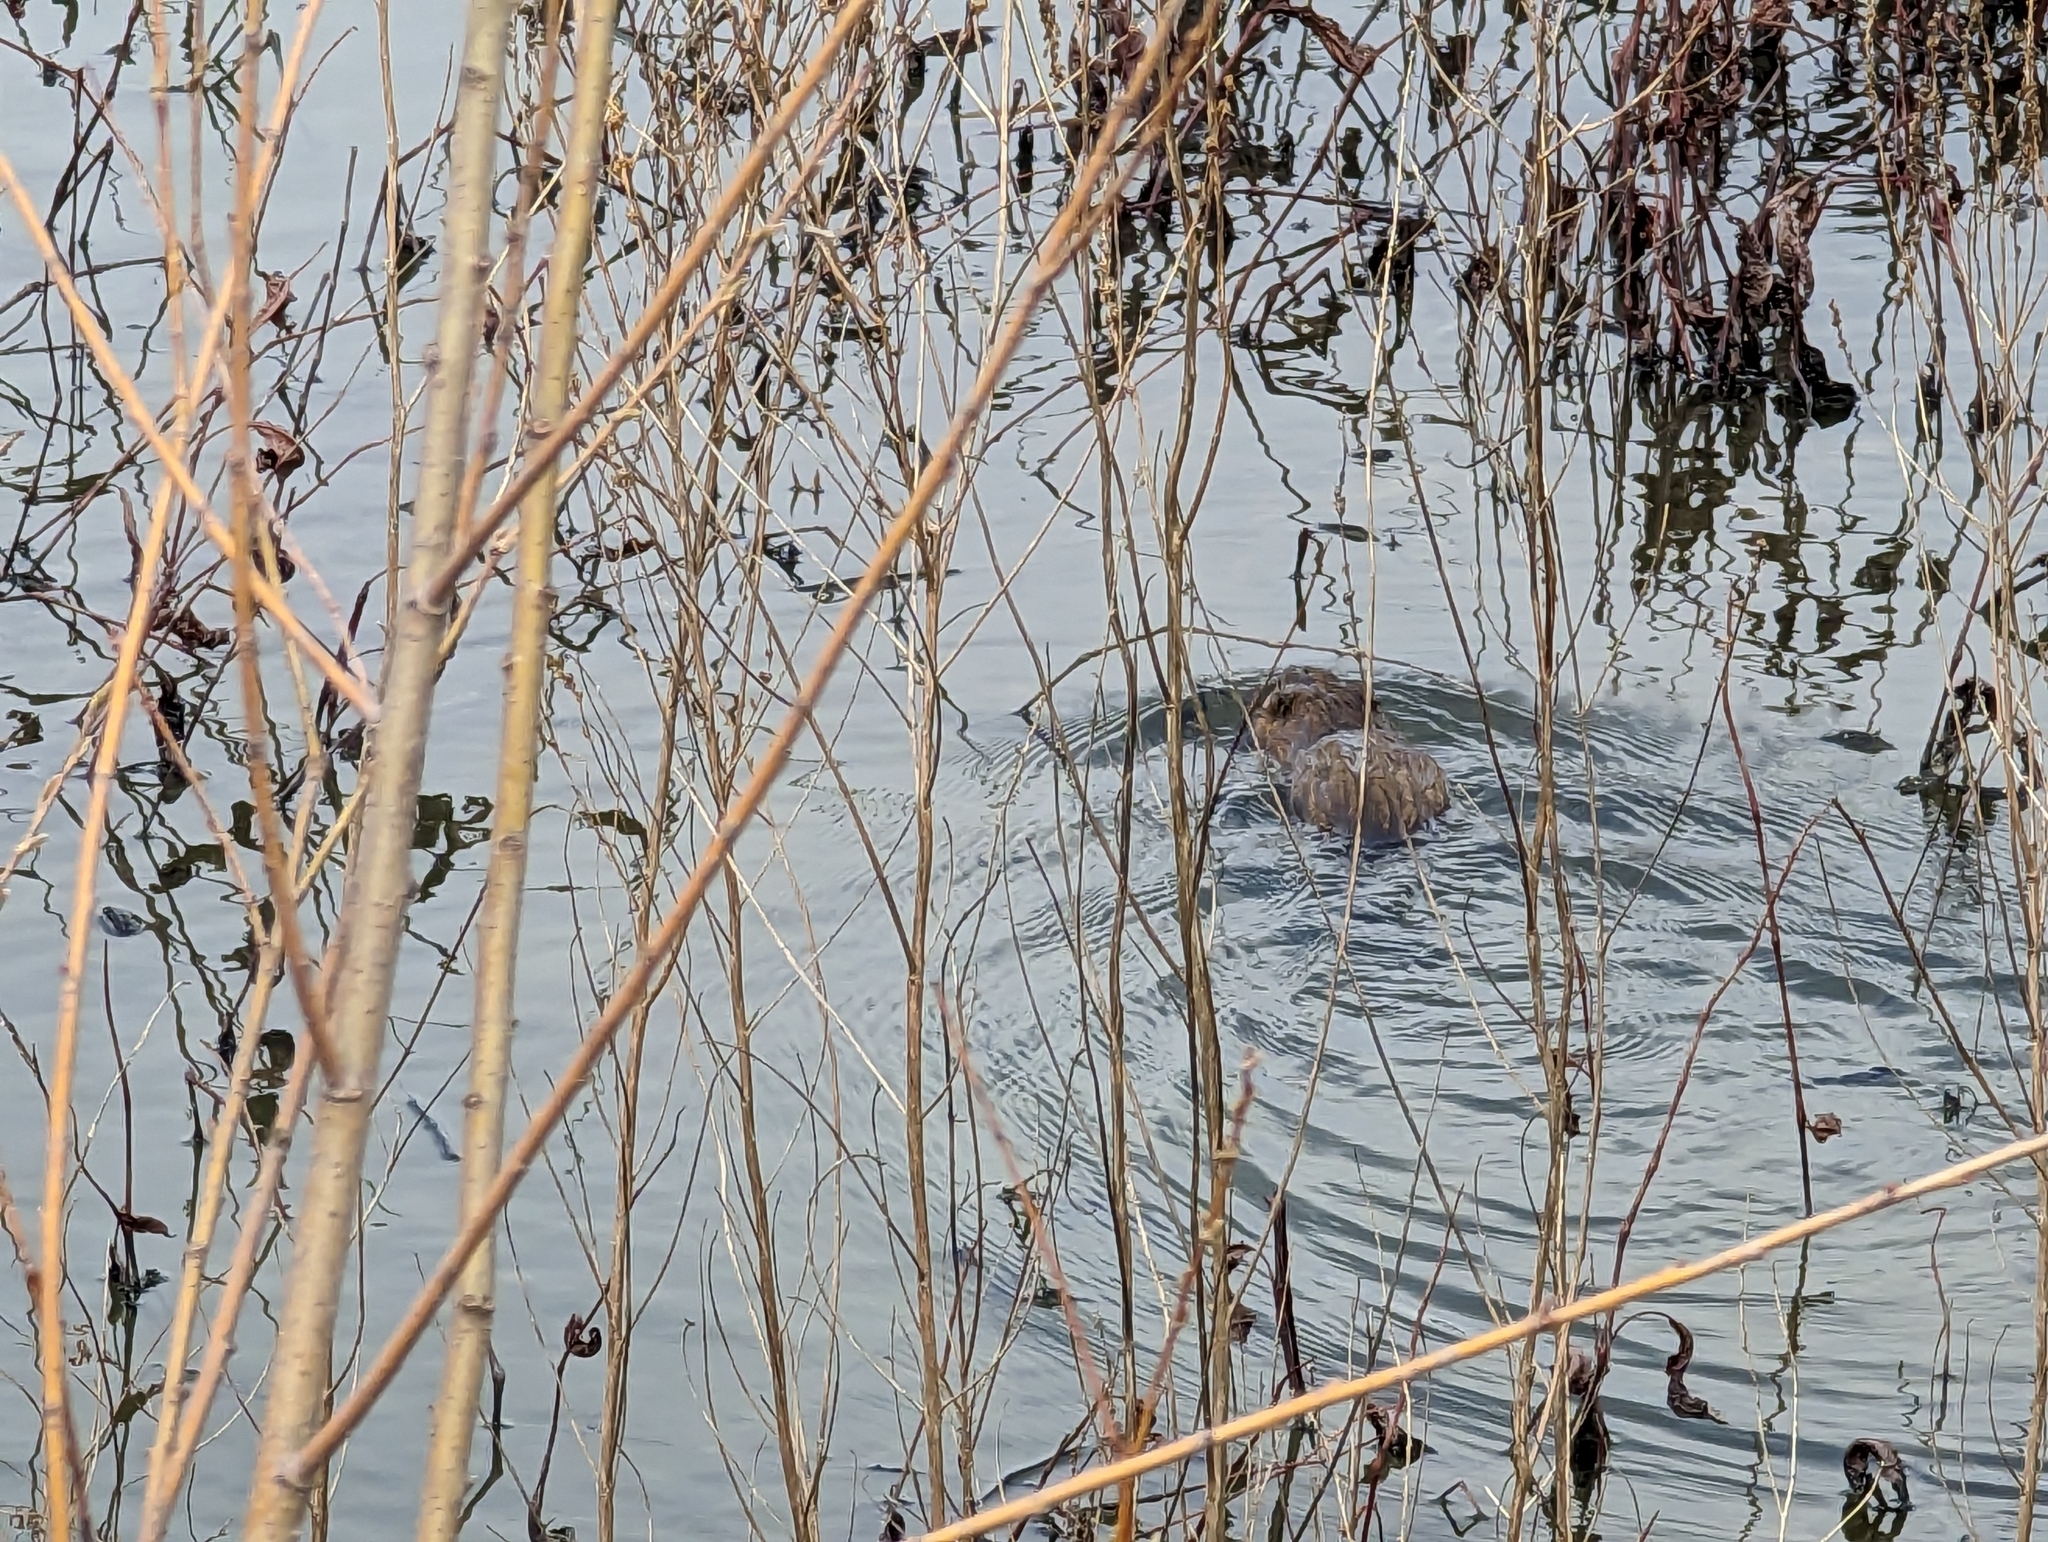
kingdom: Animalia
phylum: Chordata
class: Mammalia
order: Rodentia
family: Cricetidae
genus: Ondatra
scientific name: Ondatra zibethicus
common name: Muskrat
